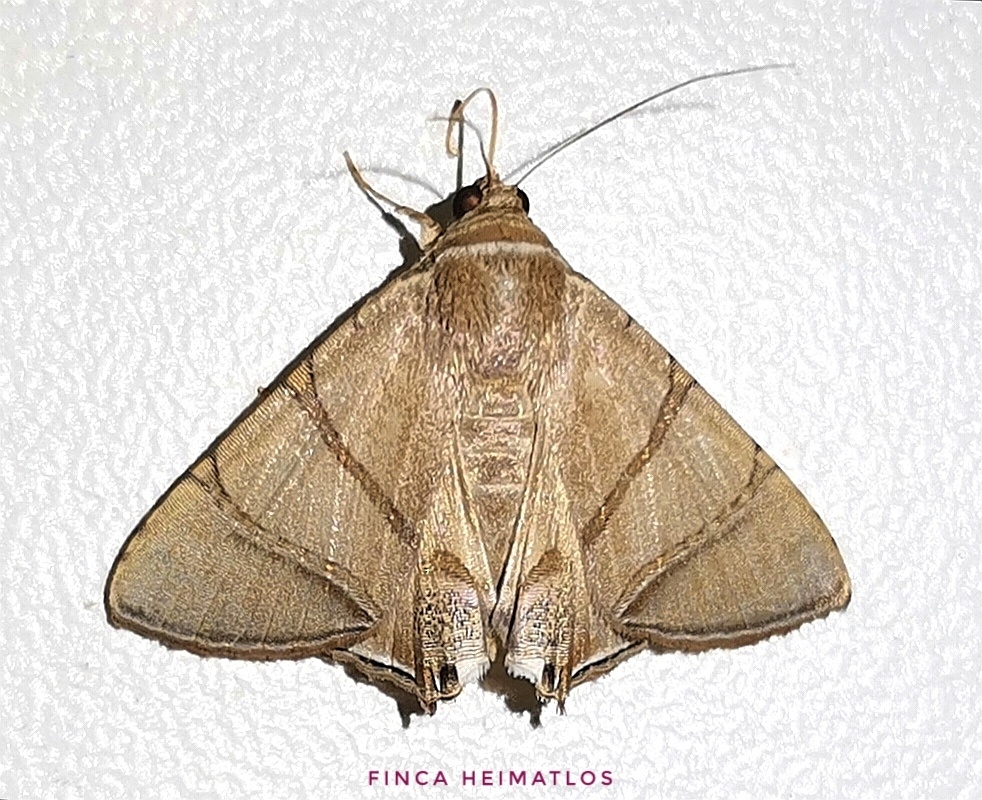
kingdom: Animalia
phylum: Arthropoda
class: Insecta
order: Lepidoptera
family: Erebidae
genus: Eulepidotis
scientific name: Eulepidotis juncida
